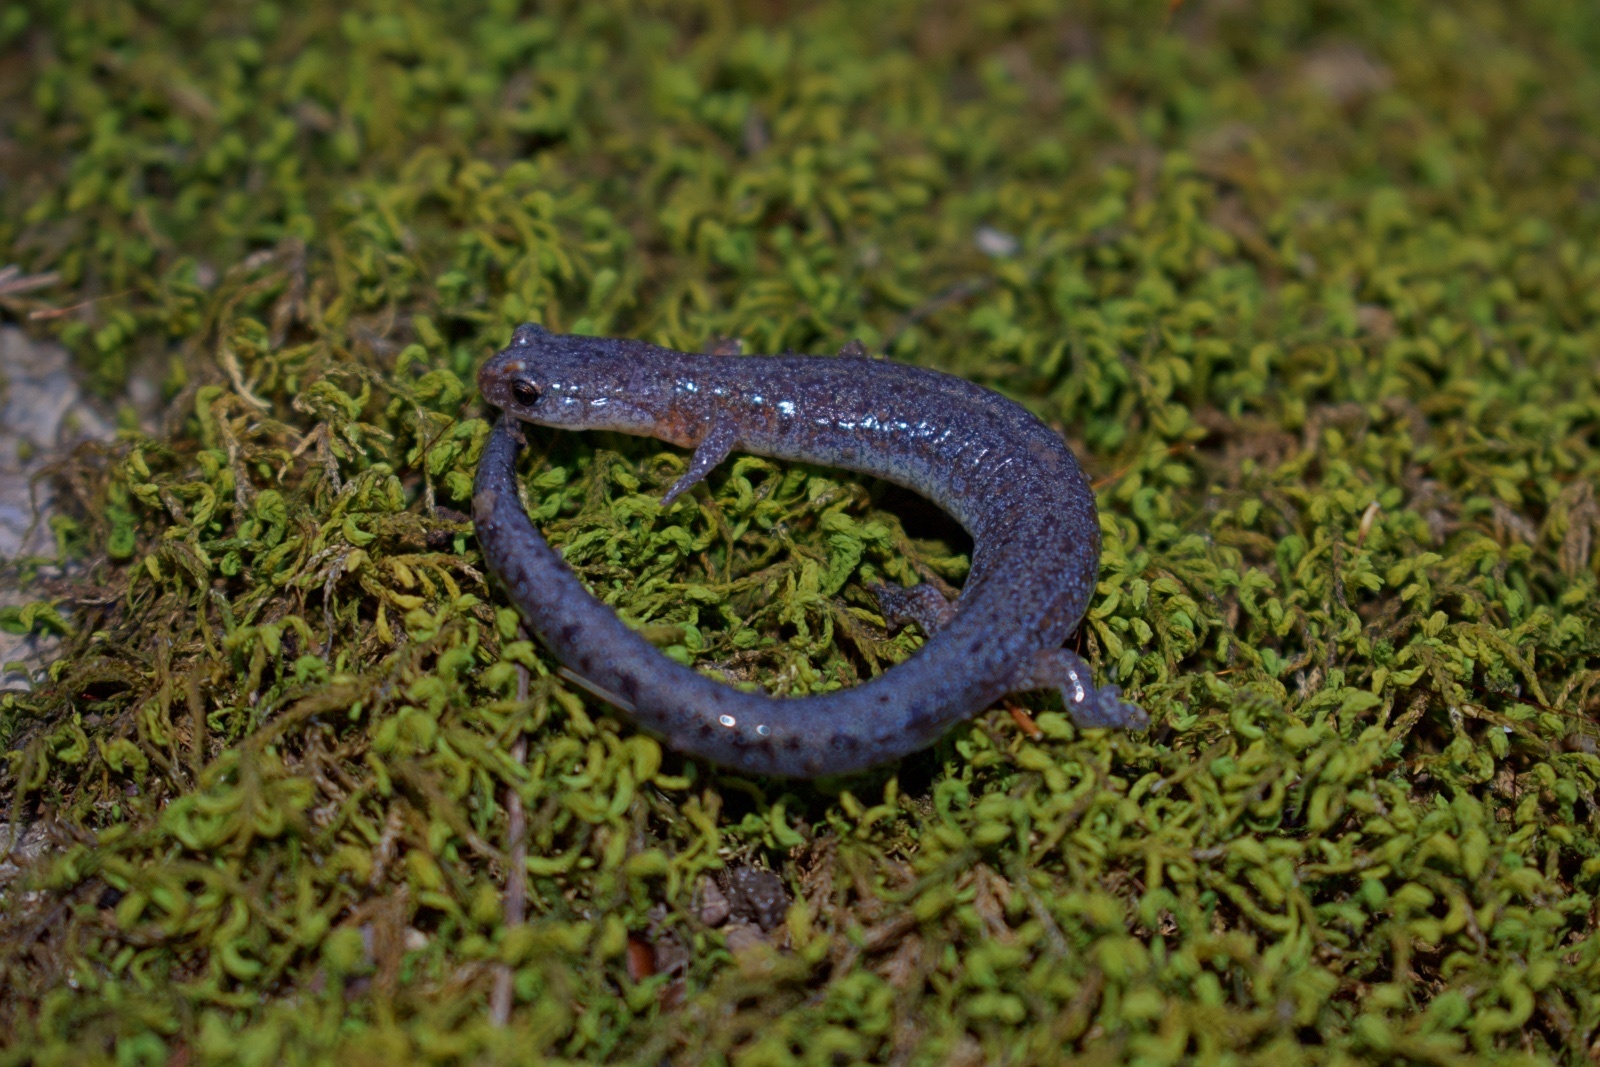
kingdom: Animalia
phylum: Chordata
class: Amphibia
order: Caudata
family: Plethodontidae
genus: Plethodon
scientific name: Plethodon dorsalis
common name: Northern zigzag salamander
